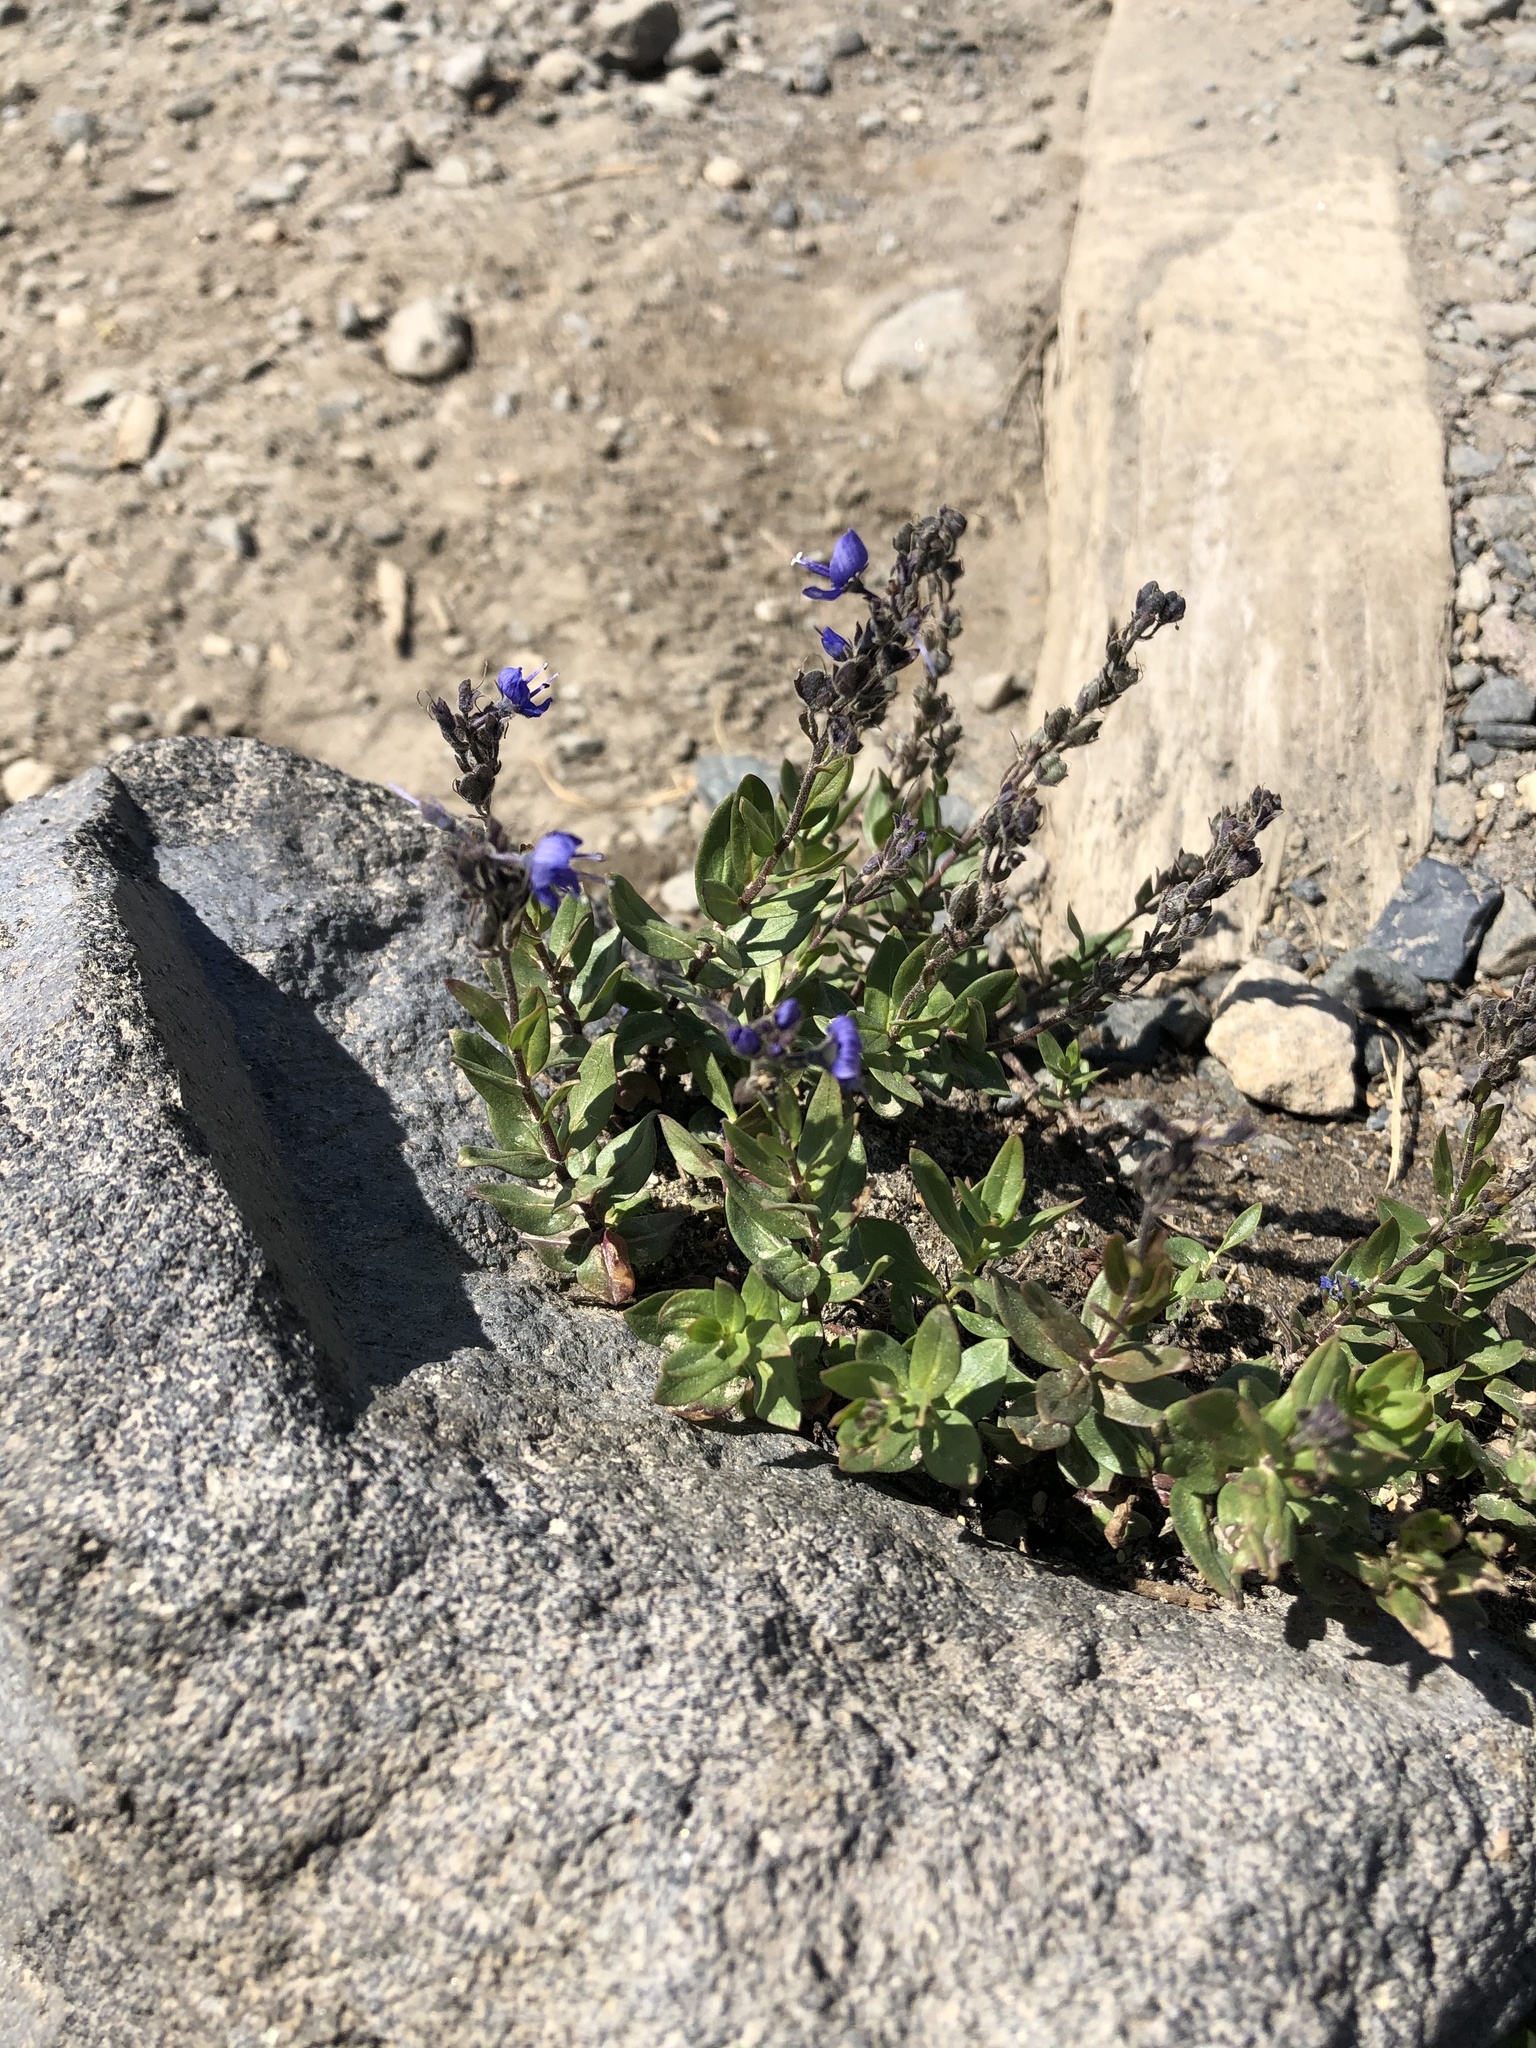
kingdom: Plantae
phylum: Tracheophyta
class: Magnoliopsida
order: Lamiales
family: Plantaginaceae
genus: Veronica
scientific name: Veronica cusickii
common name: Cusick's speedwell
